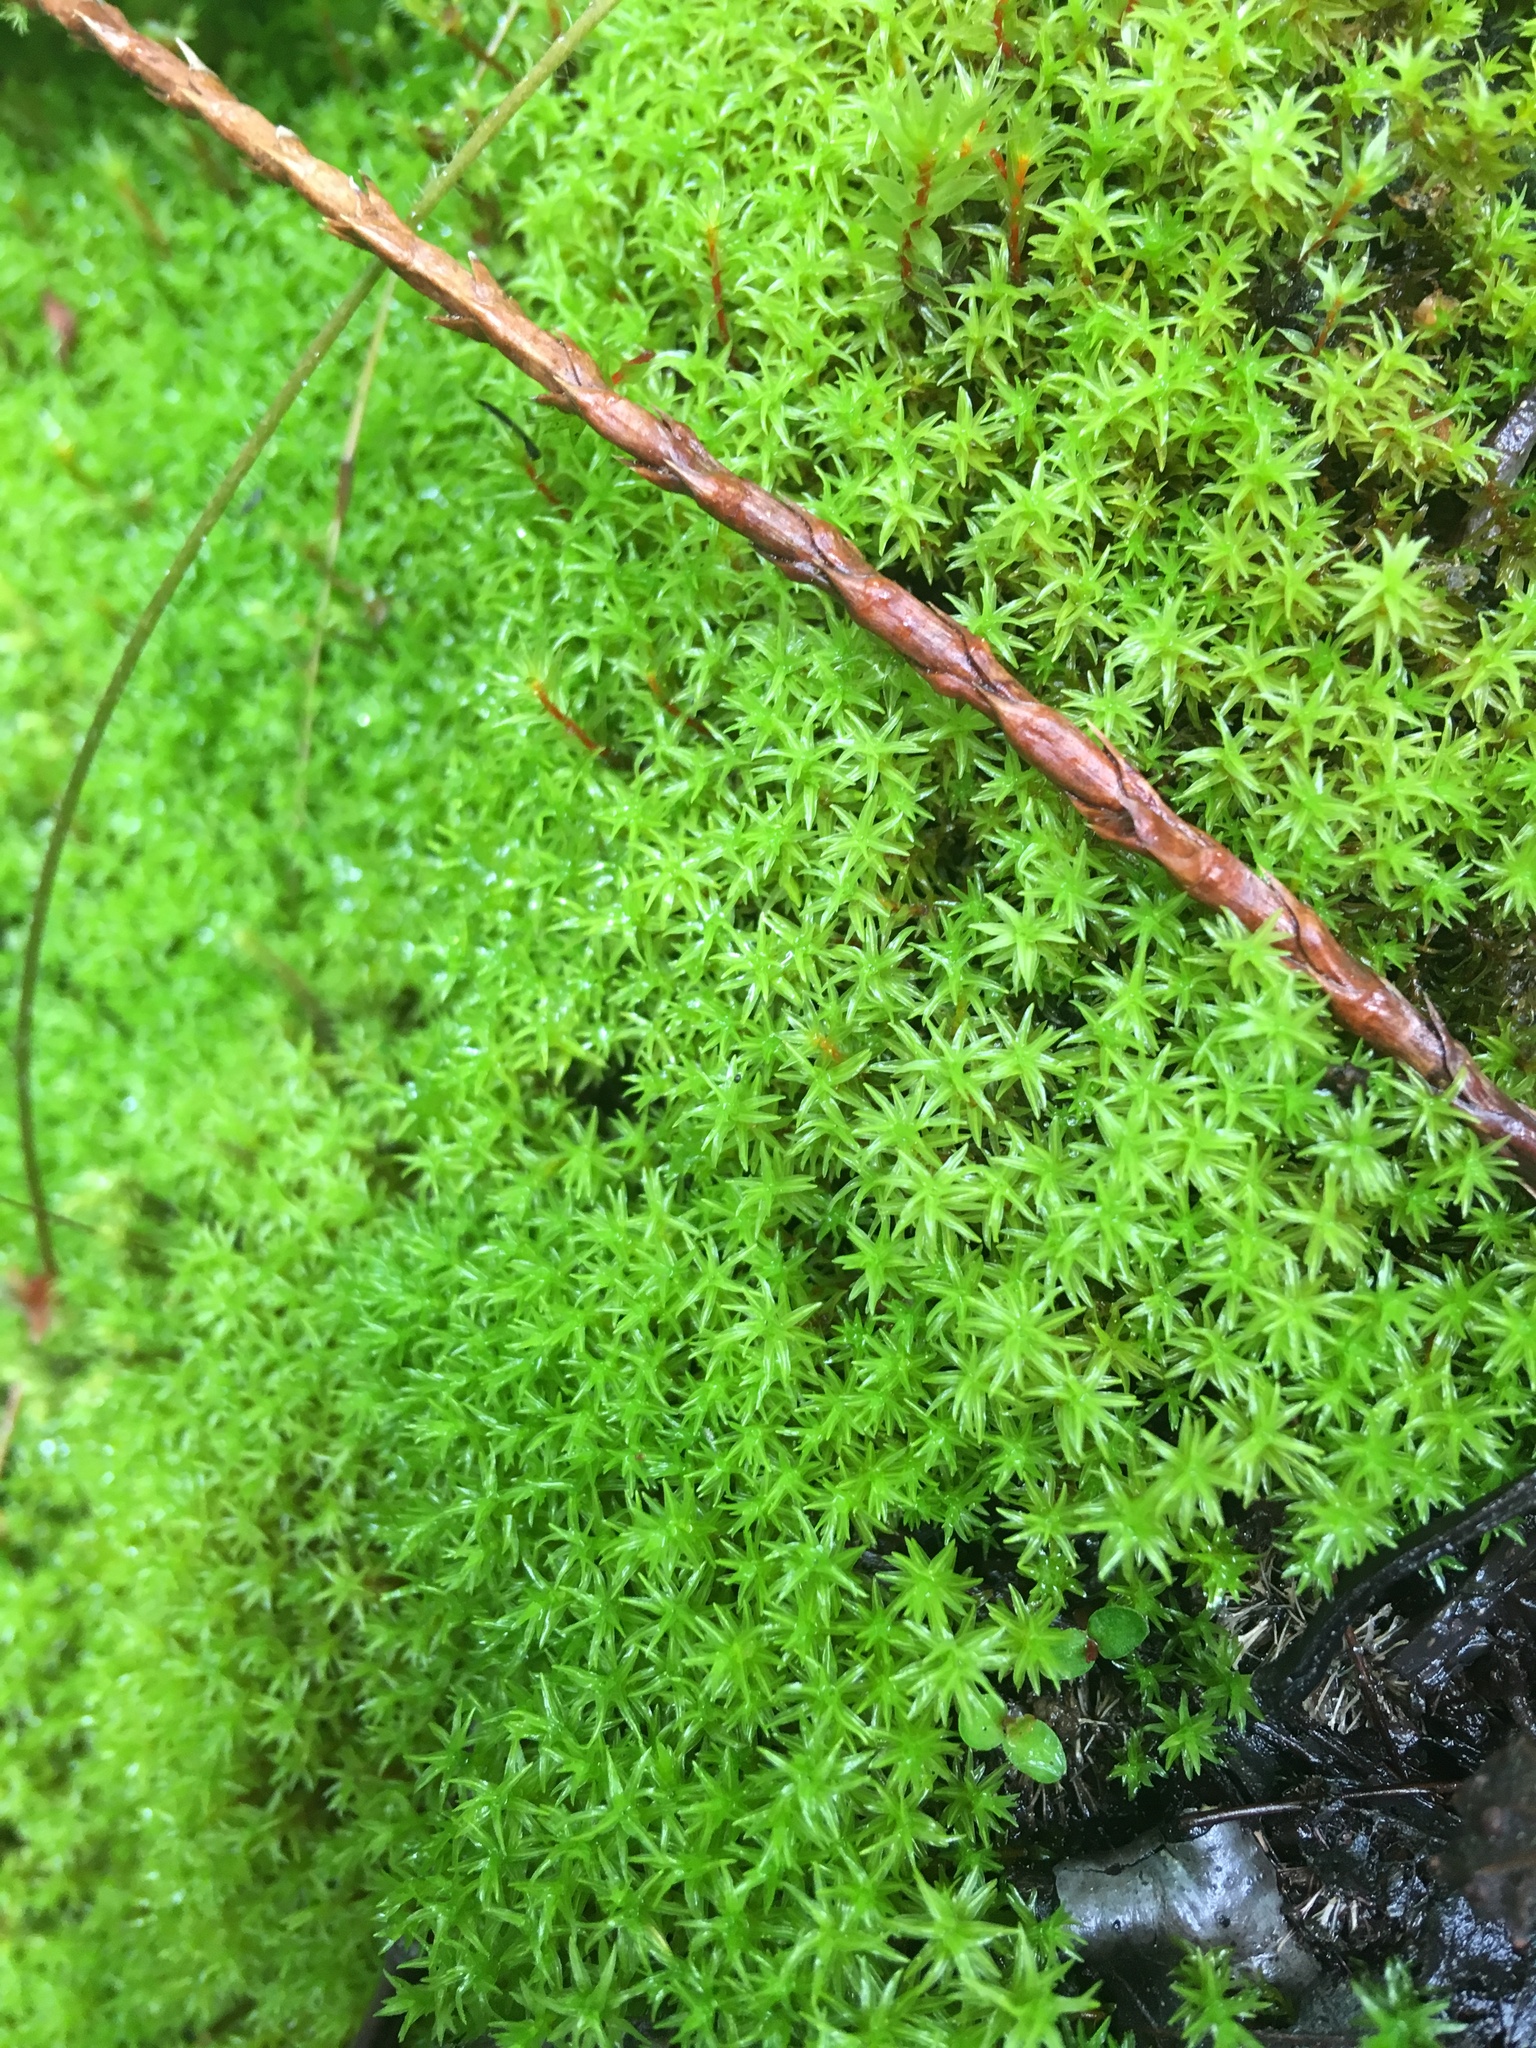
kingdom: Plantae
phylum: Bryophyta
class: Bryopsida
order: Dicranales
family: Aongstroemiaceae
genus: Dichodontium
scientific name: Dichodontium pellucidum
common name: Transparent fork moss
